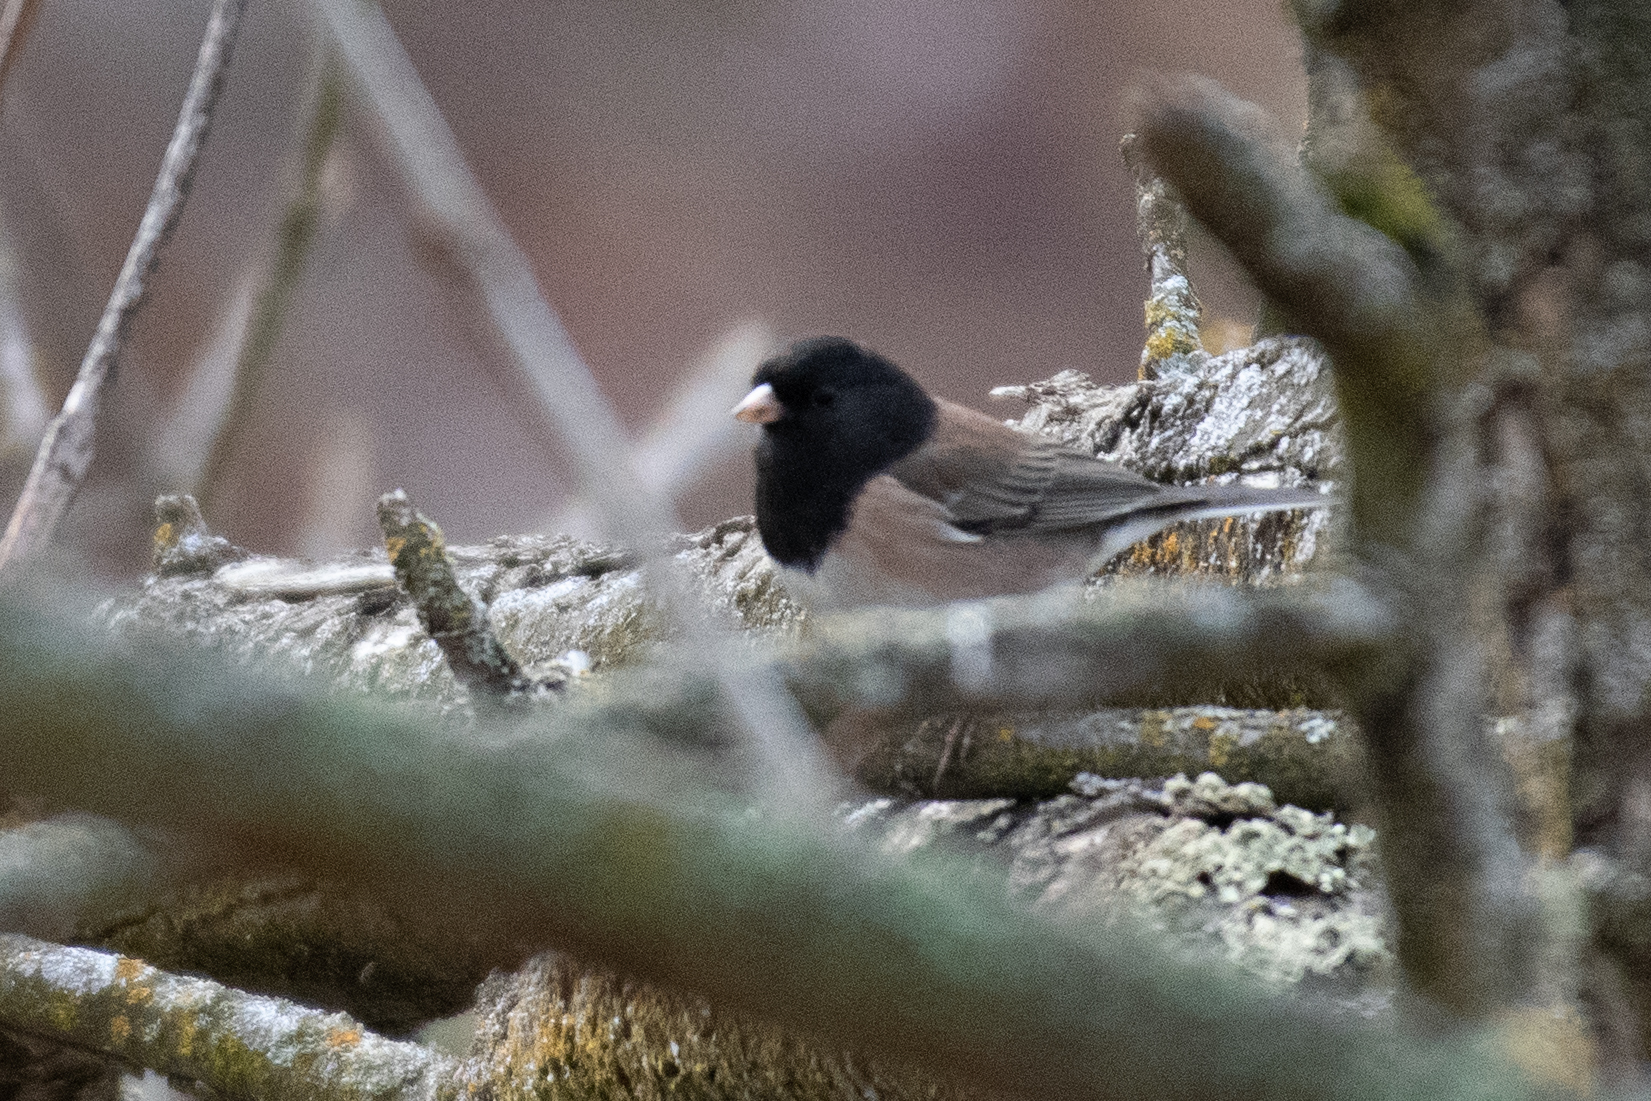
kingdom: Animalia
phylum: Chordata
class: Aves
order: Passeriformes
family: Passerellidae
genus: Junco
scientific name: Junco hyemalis
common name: Dark-eyed junco
